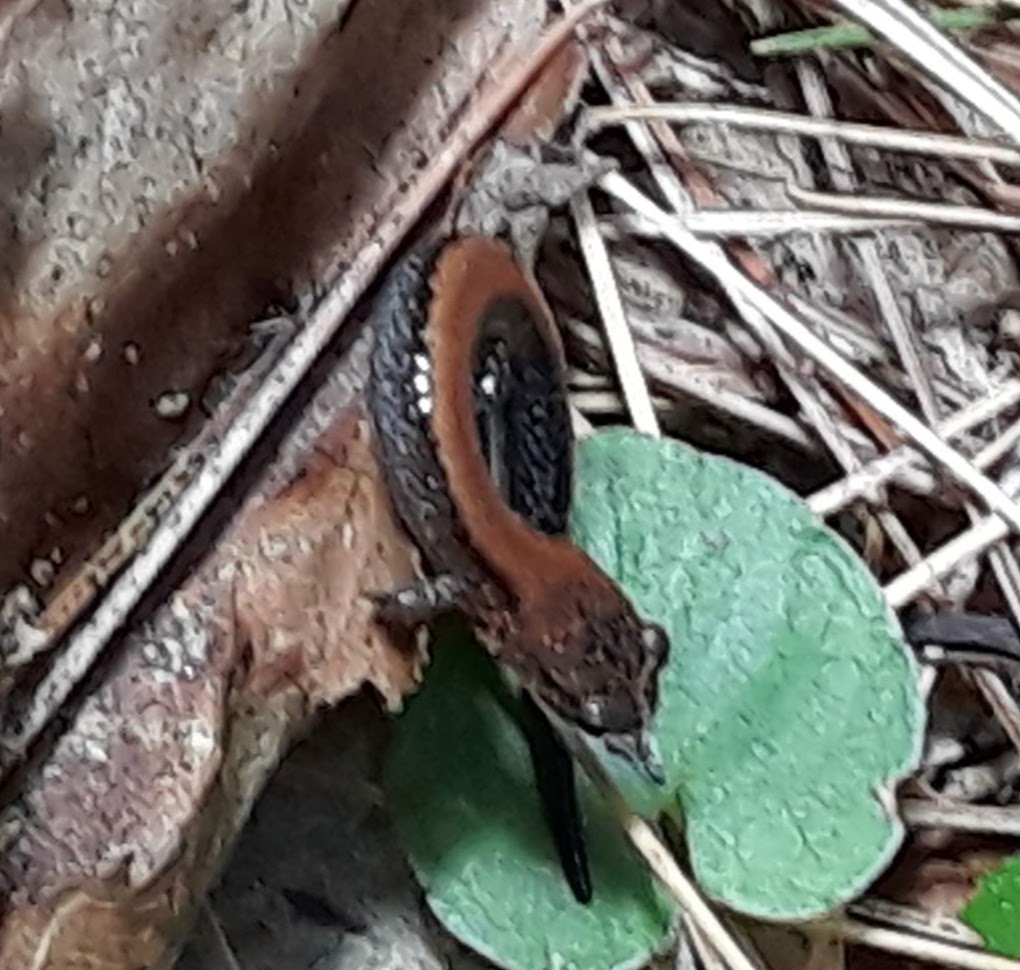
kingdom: Animalia
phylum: Chordata
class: Amphibia
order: Caudata
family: Plethodontidae
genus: Plethodon
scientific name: Plethodon cinereus
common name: Redback salamander
